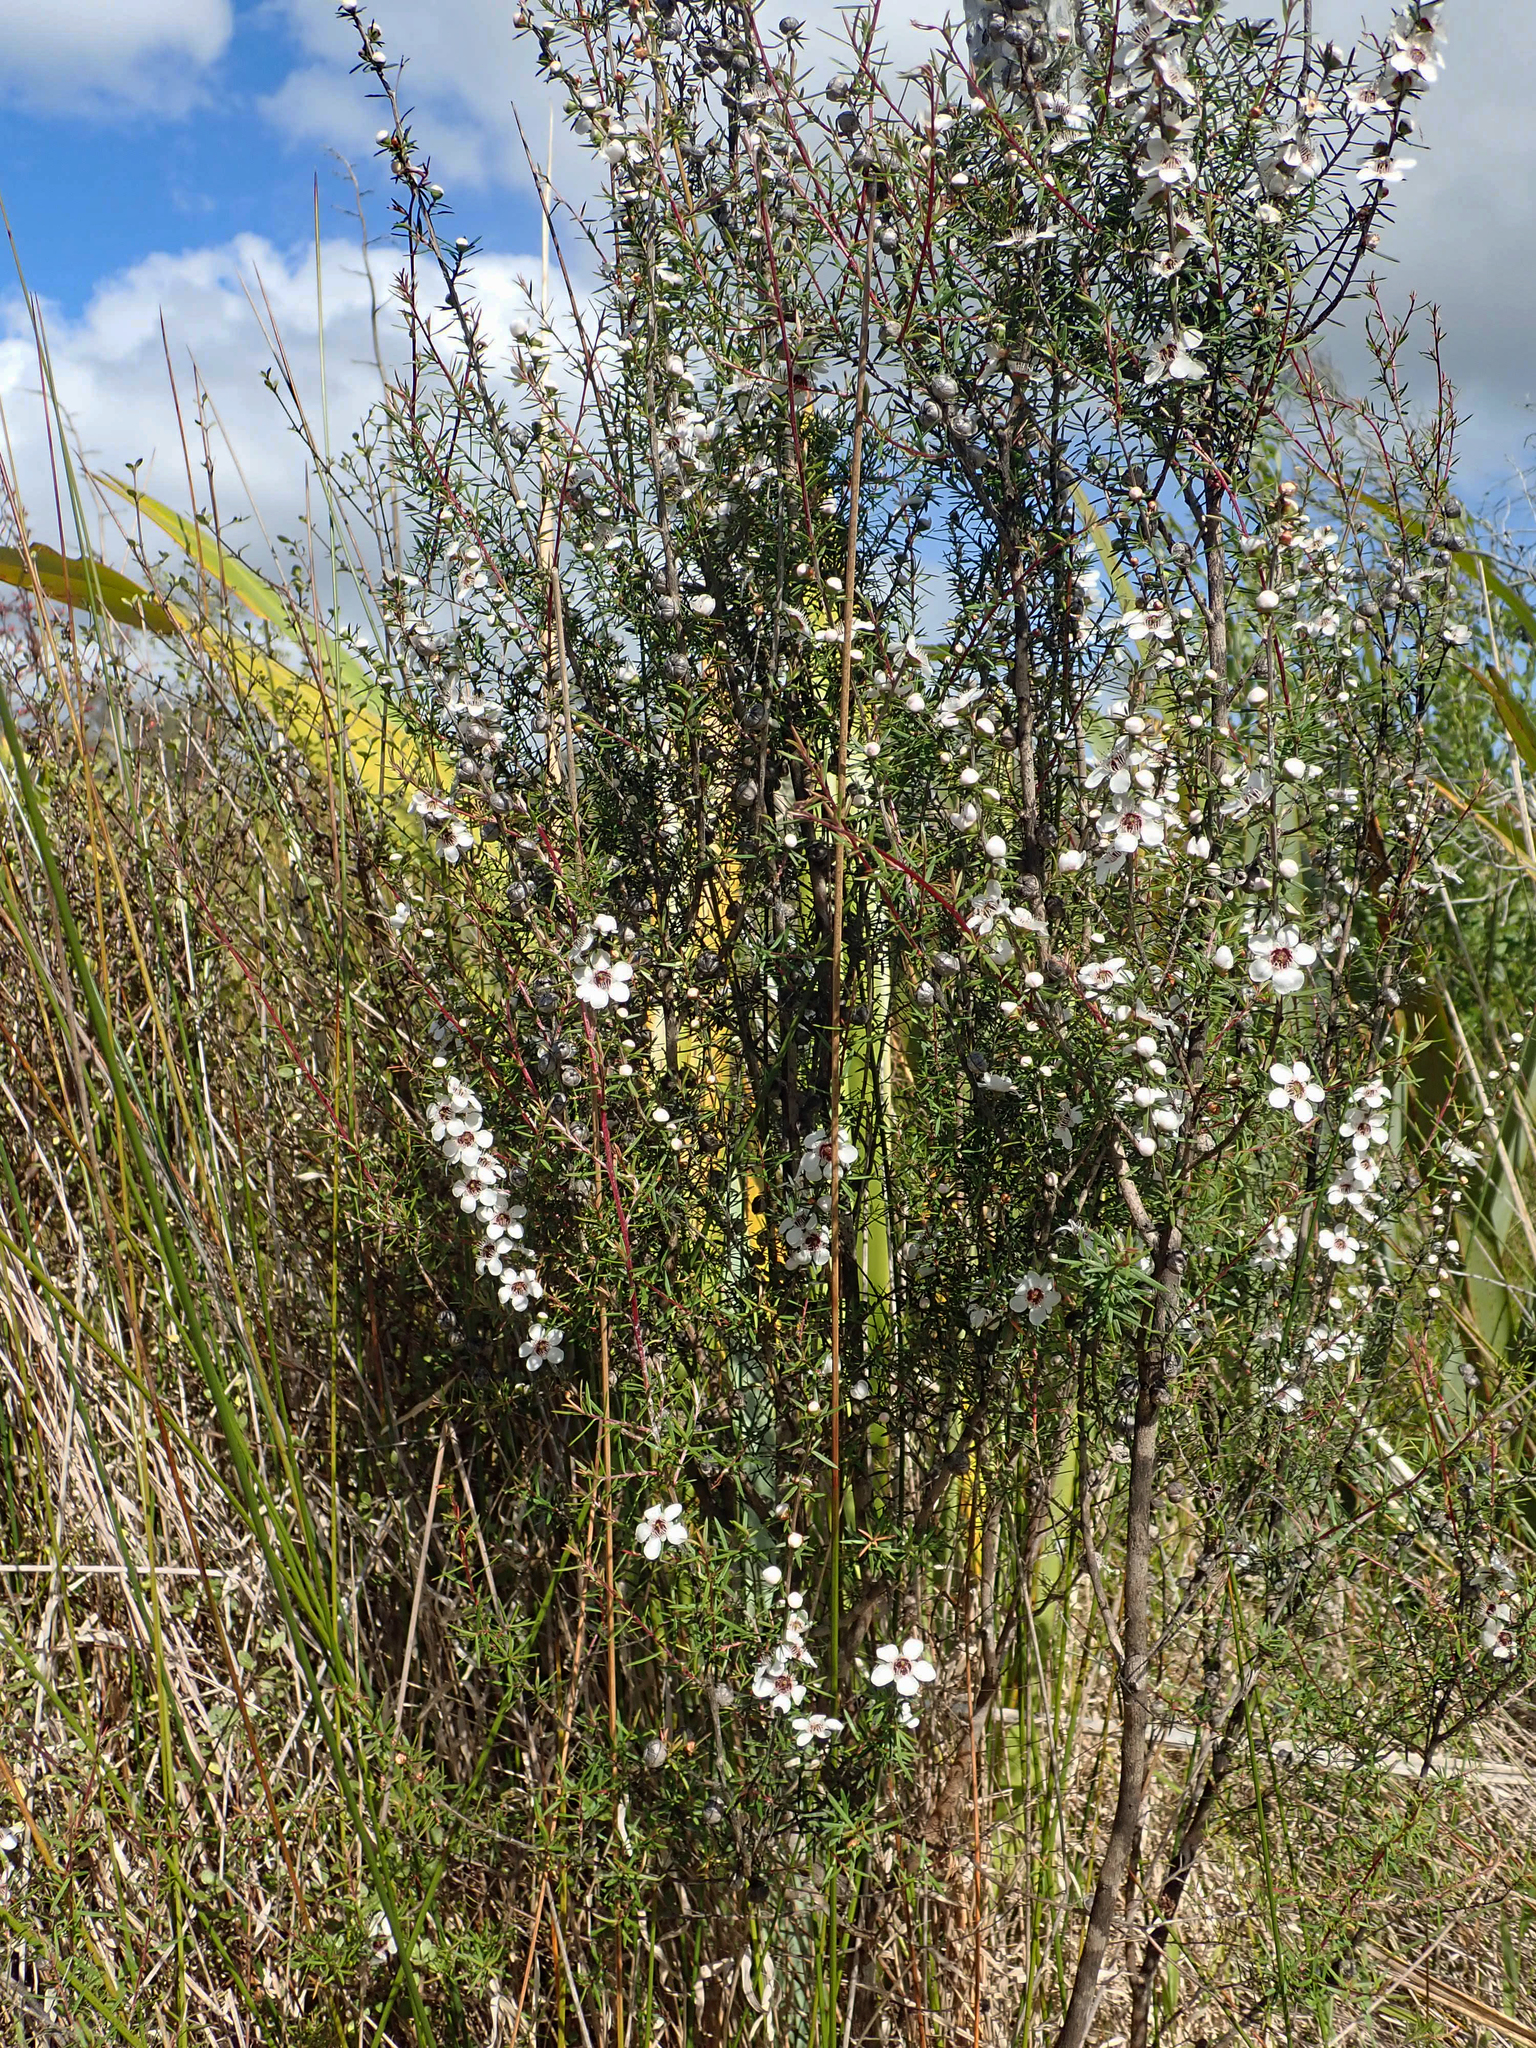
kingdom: Plantae
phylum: Tracheophyta
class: Magnoliopsida
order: Myrtales
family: Myrtaceae
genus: Leptospermum
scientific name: Leptospermum repo
